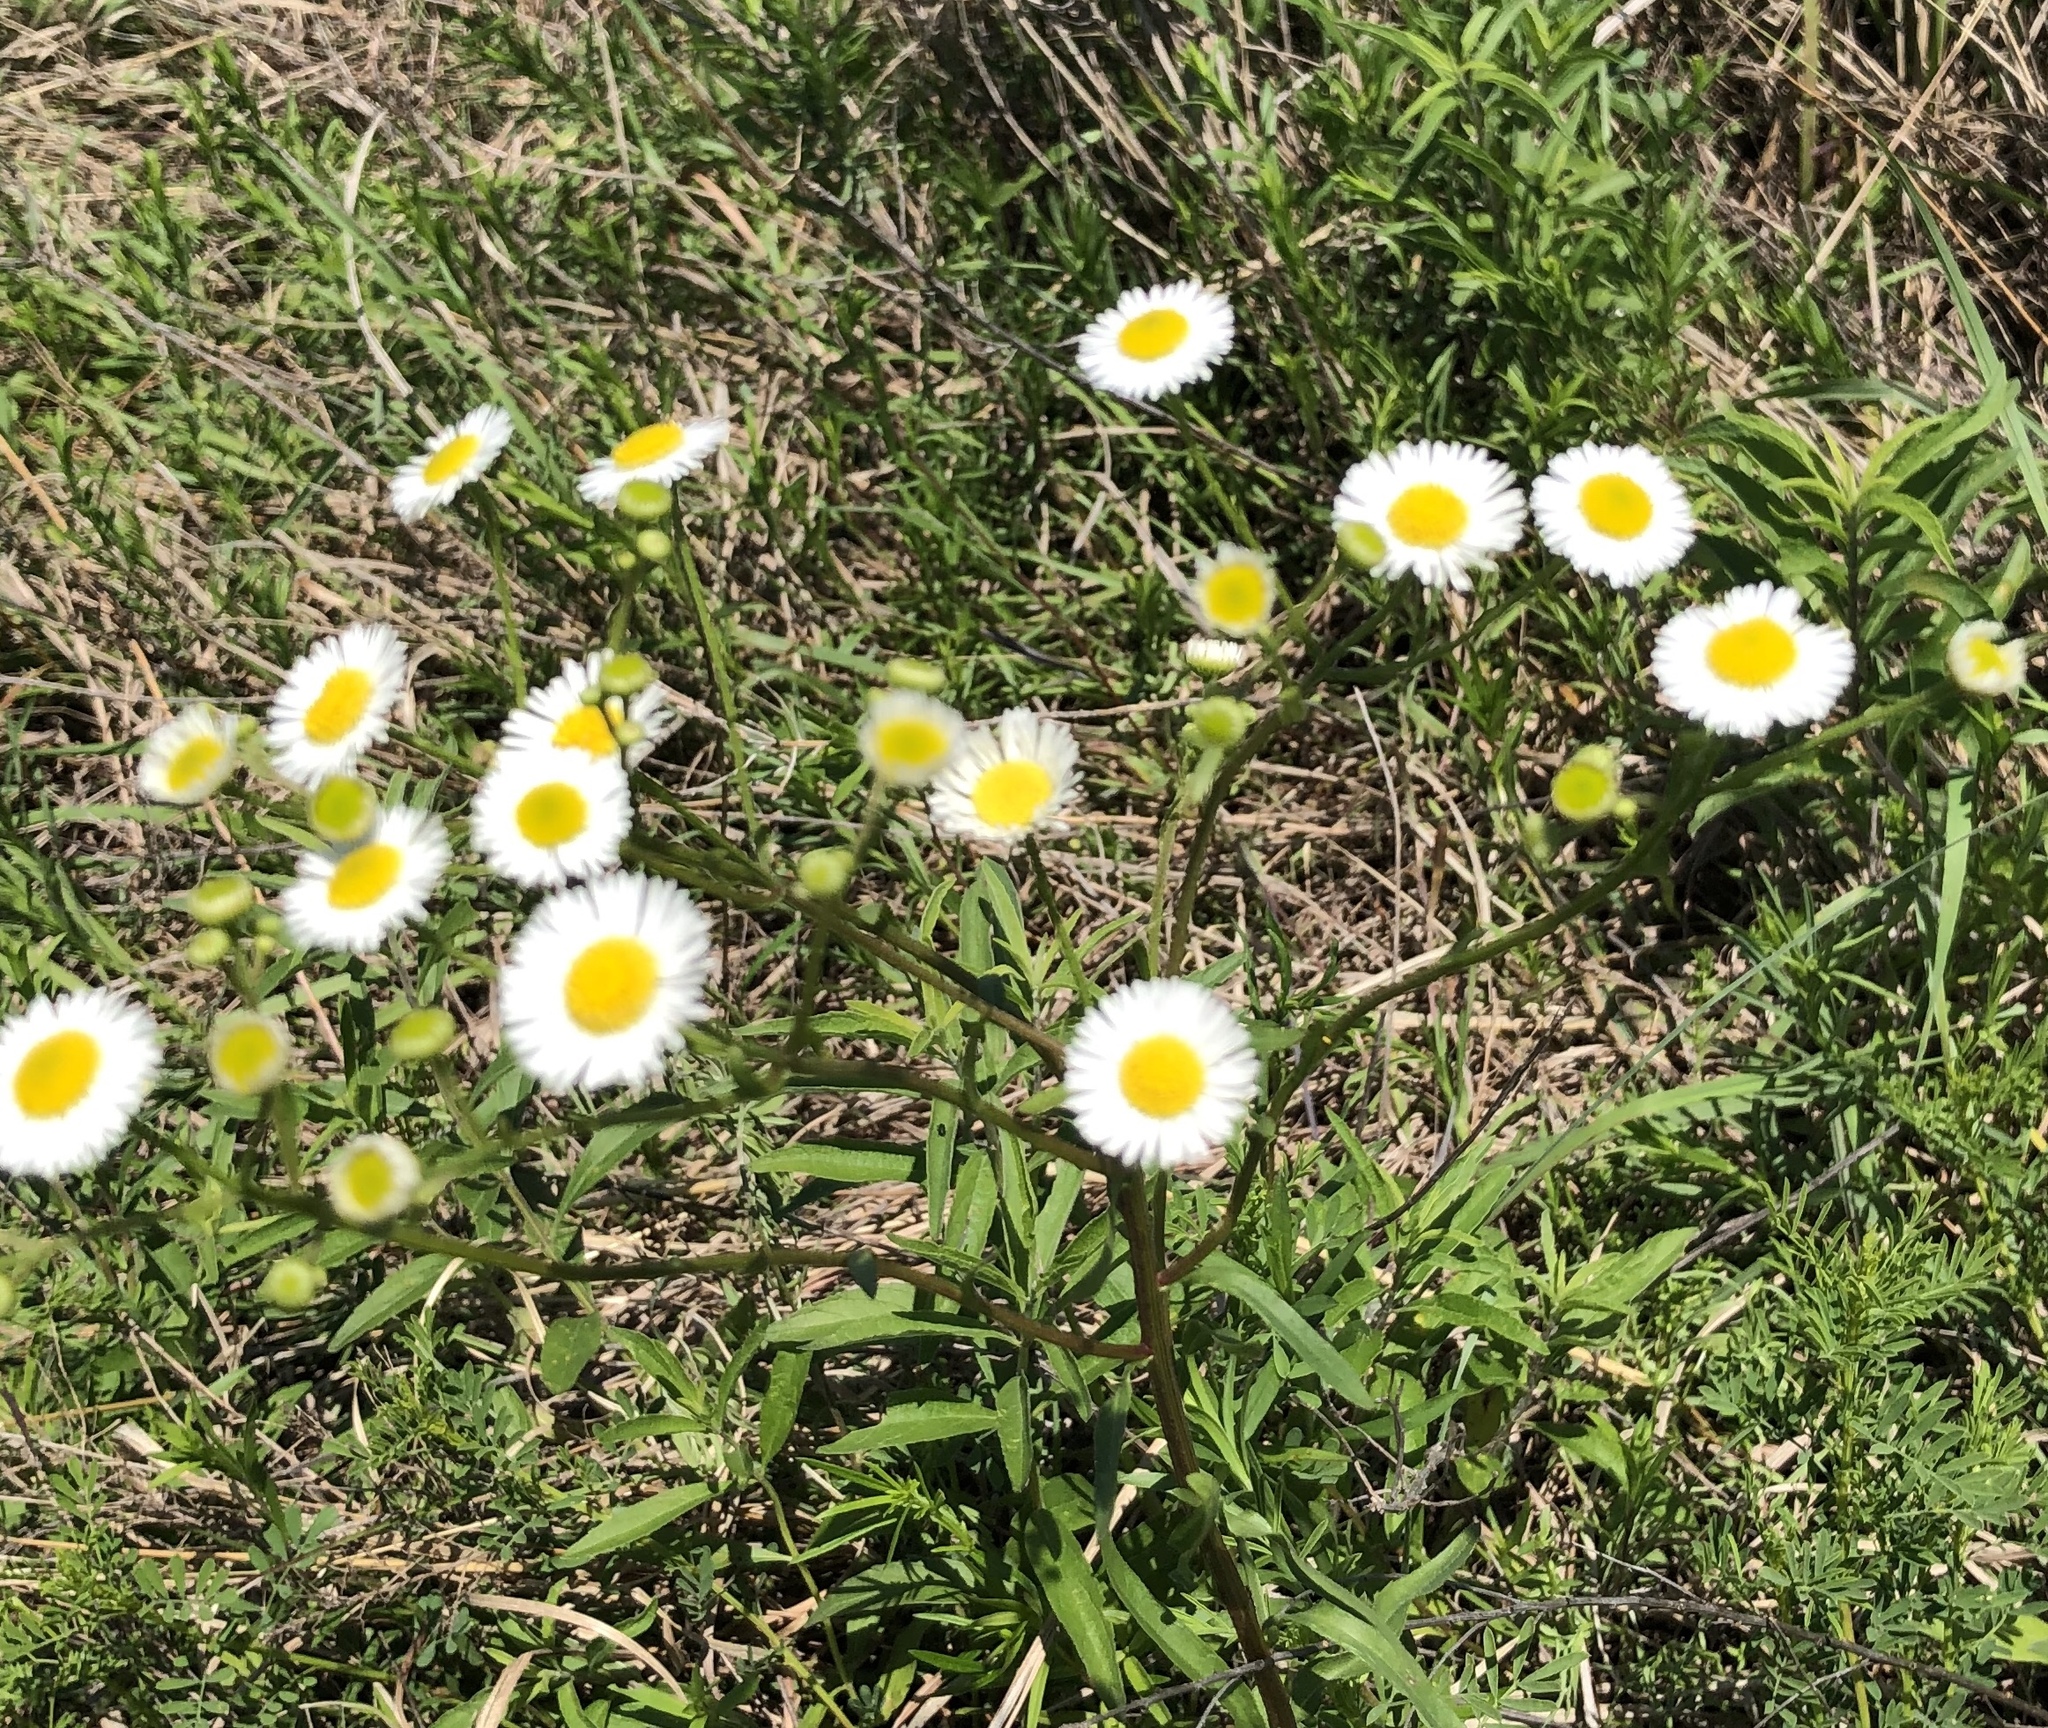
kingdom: Plantae
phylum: Tracheophyta
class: Magnoliopsida
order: Asterales
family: Asteraceae
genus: Erigeron
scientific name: Erigeron strigosus
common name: Common eastern fleabane
